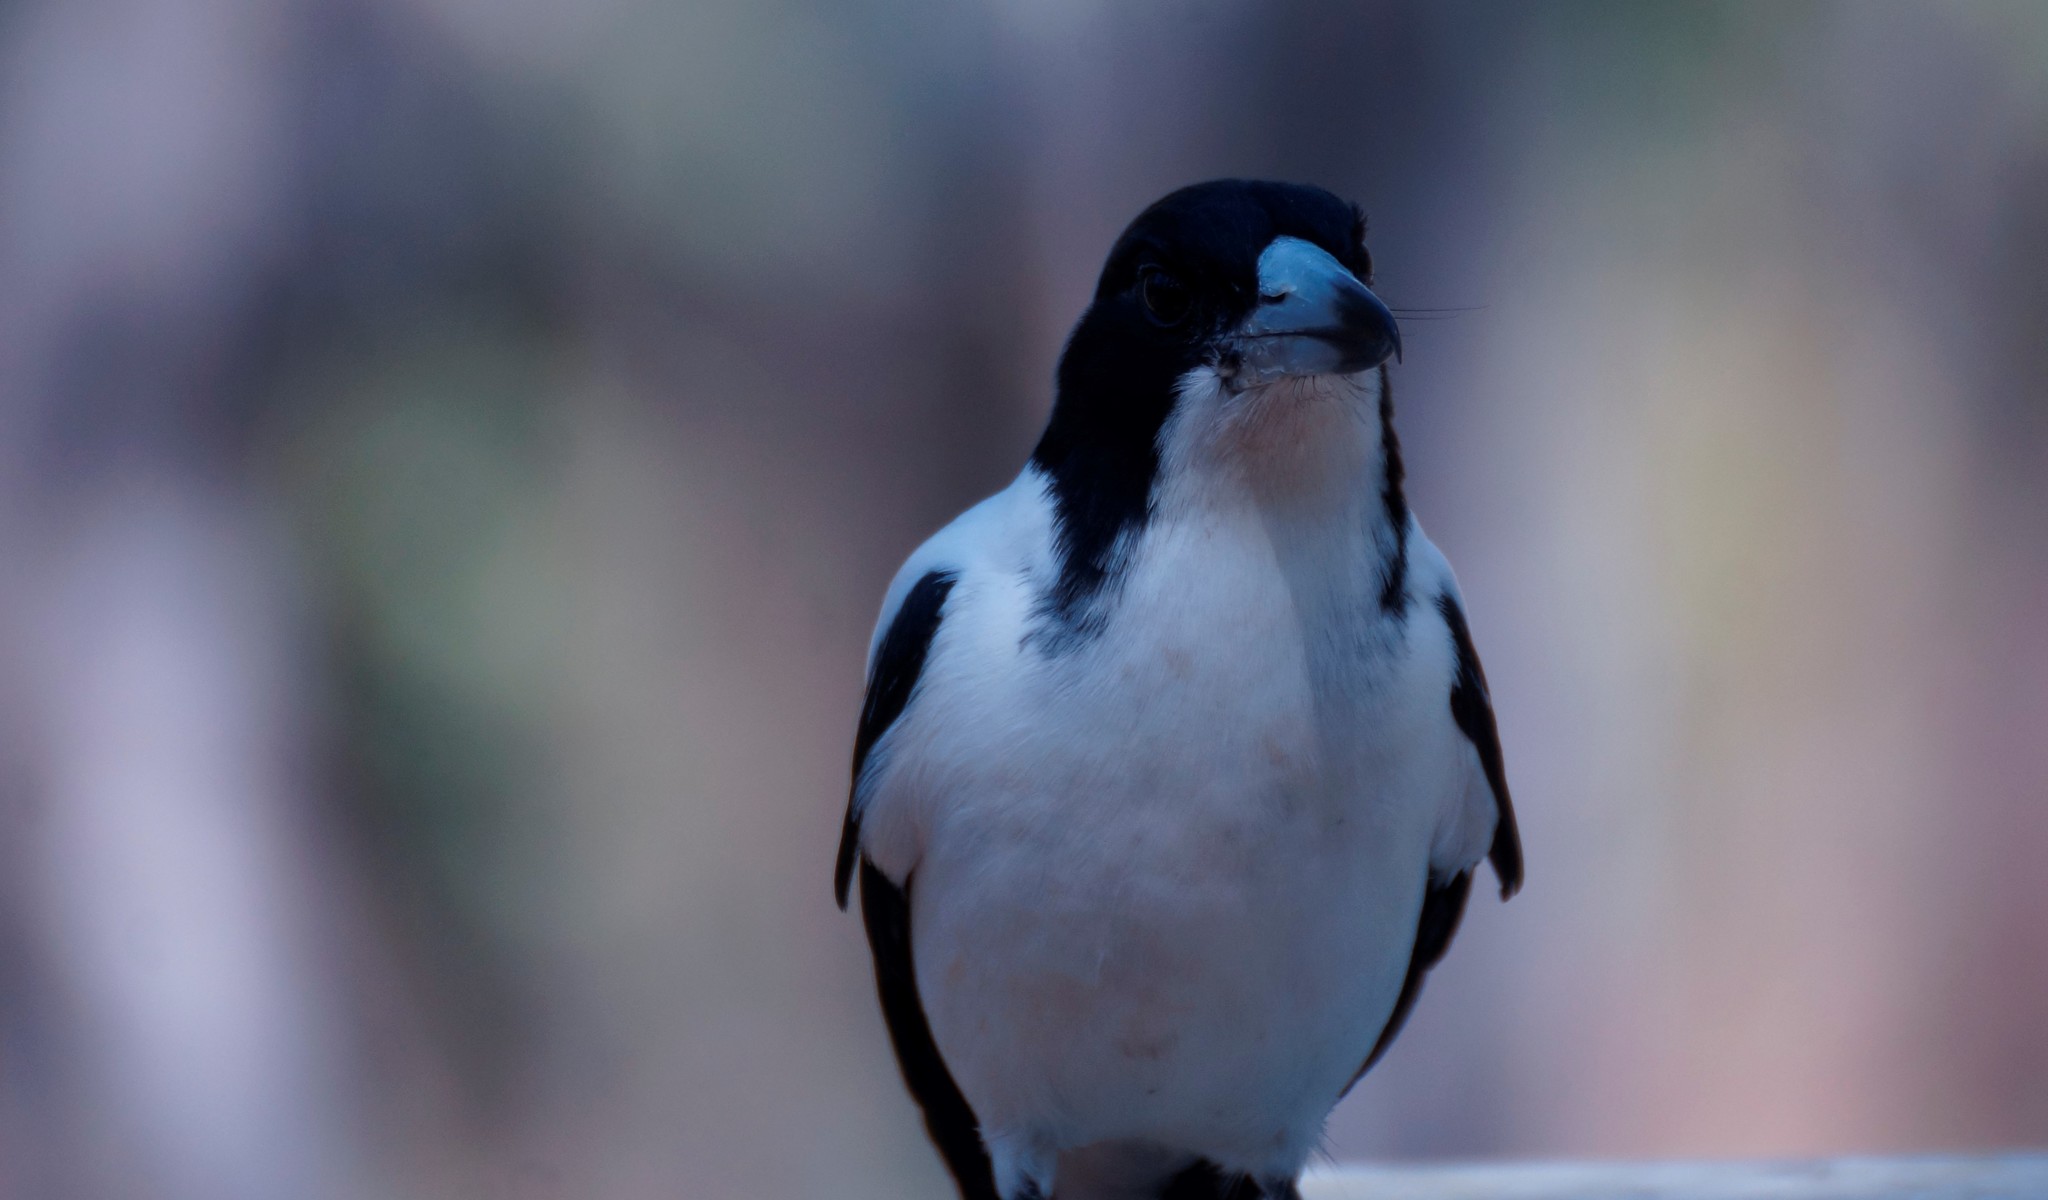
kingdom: Animalia
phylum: Chordata
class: Aves
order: Passeriformes
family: Cracticidae
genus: Cracticus
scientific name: Cracticus torquatus
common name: Grey butcherbird
